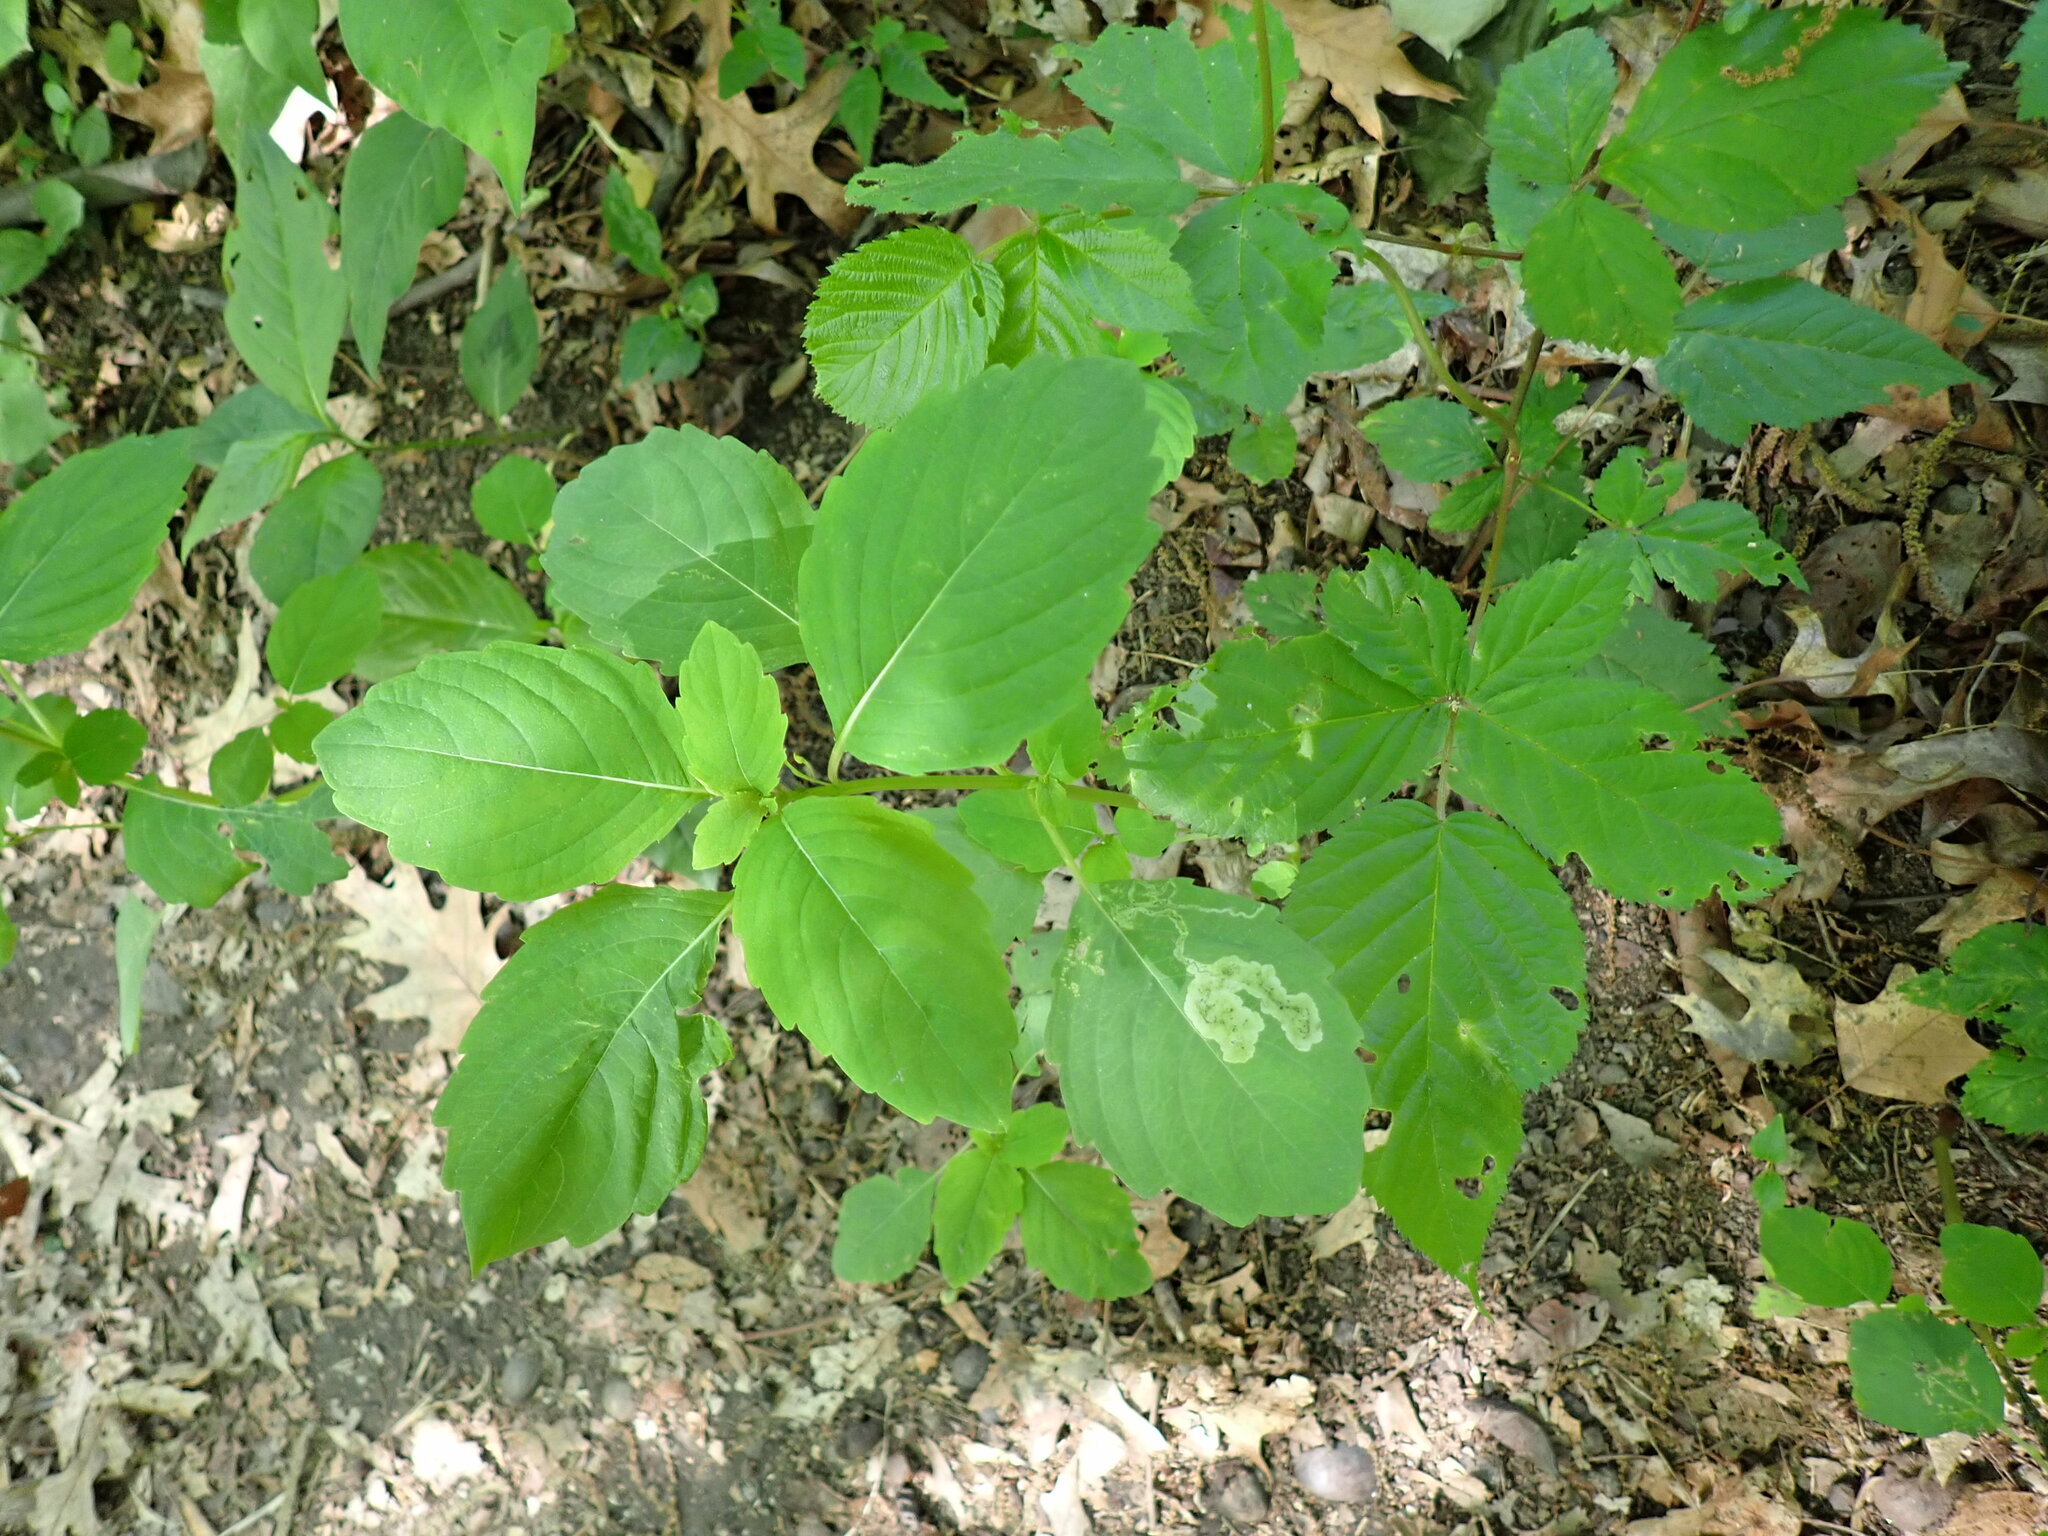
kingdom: Plantae
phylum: Tracheophyta
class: Magnoliopsida
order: Ericales
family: Balsaminaceae
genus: Impatiens
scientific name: Impatiens capensis
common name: Orange balsam
